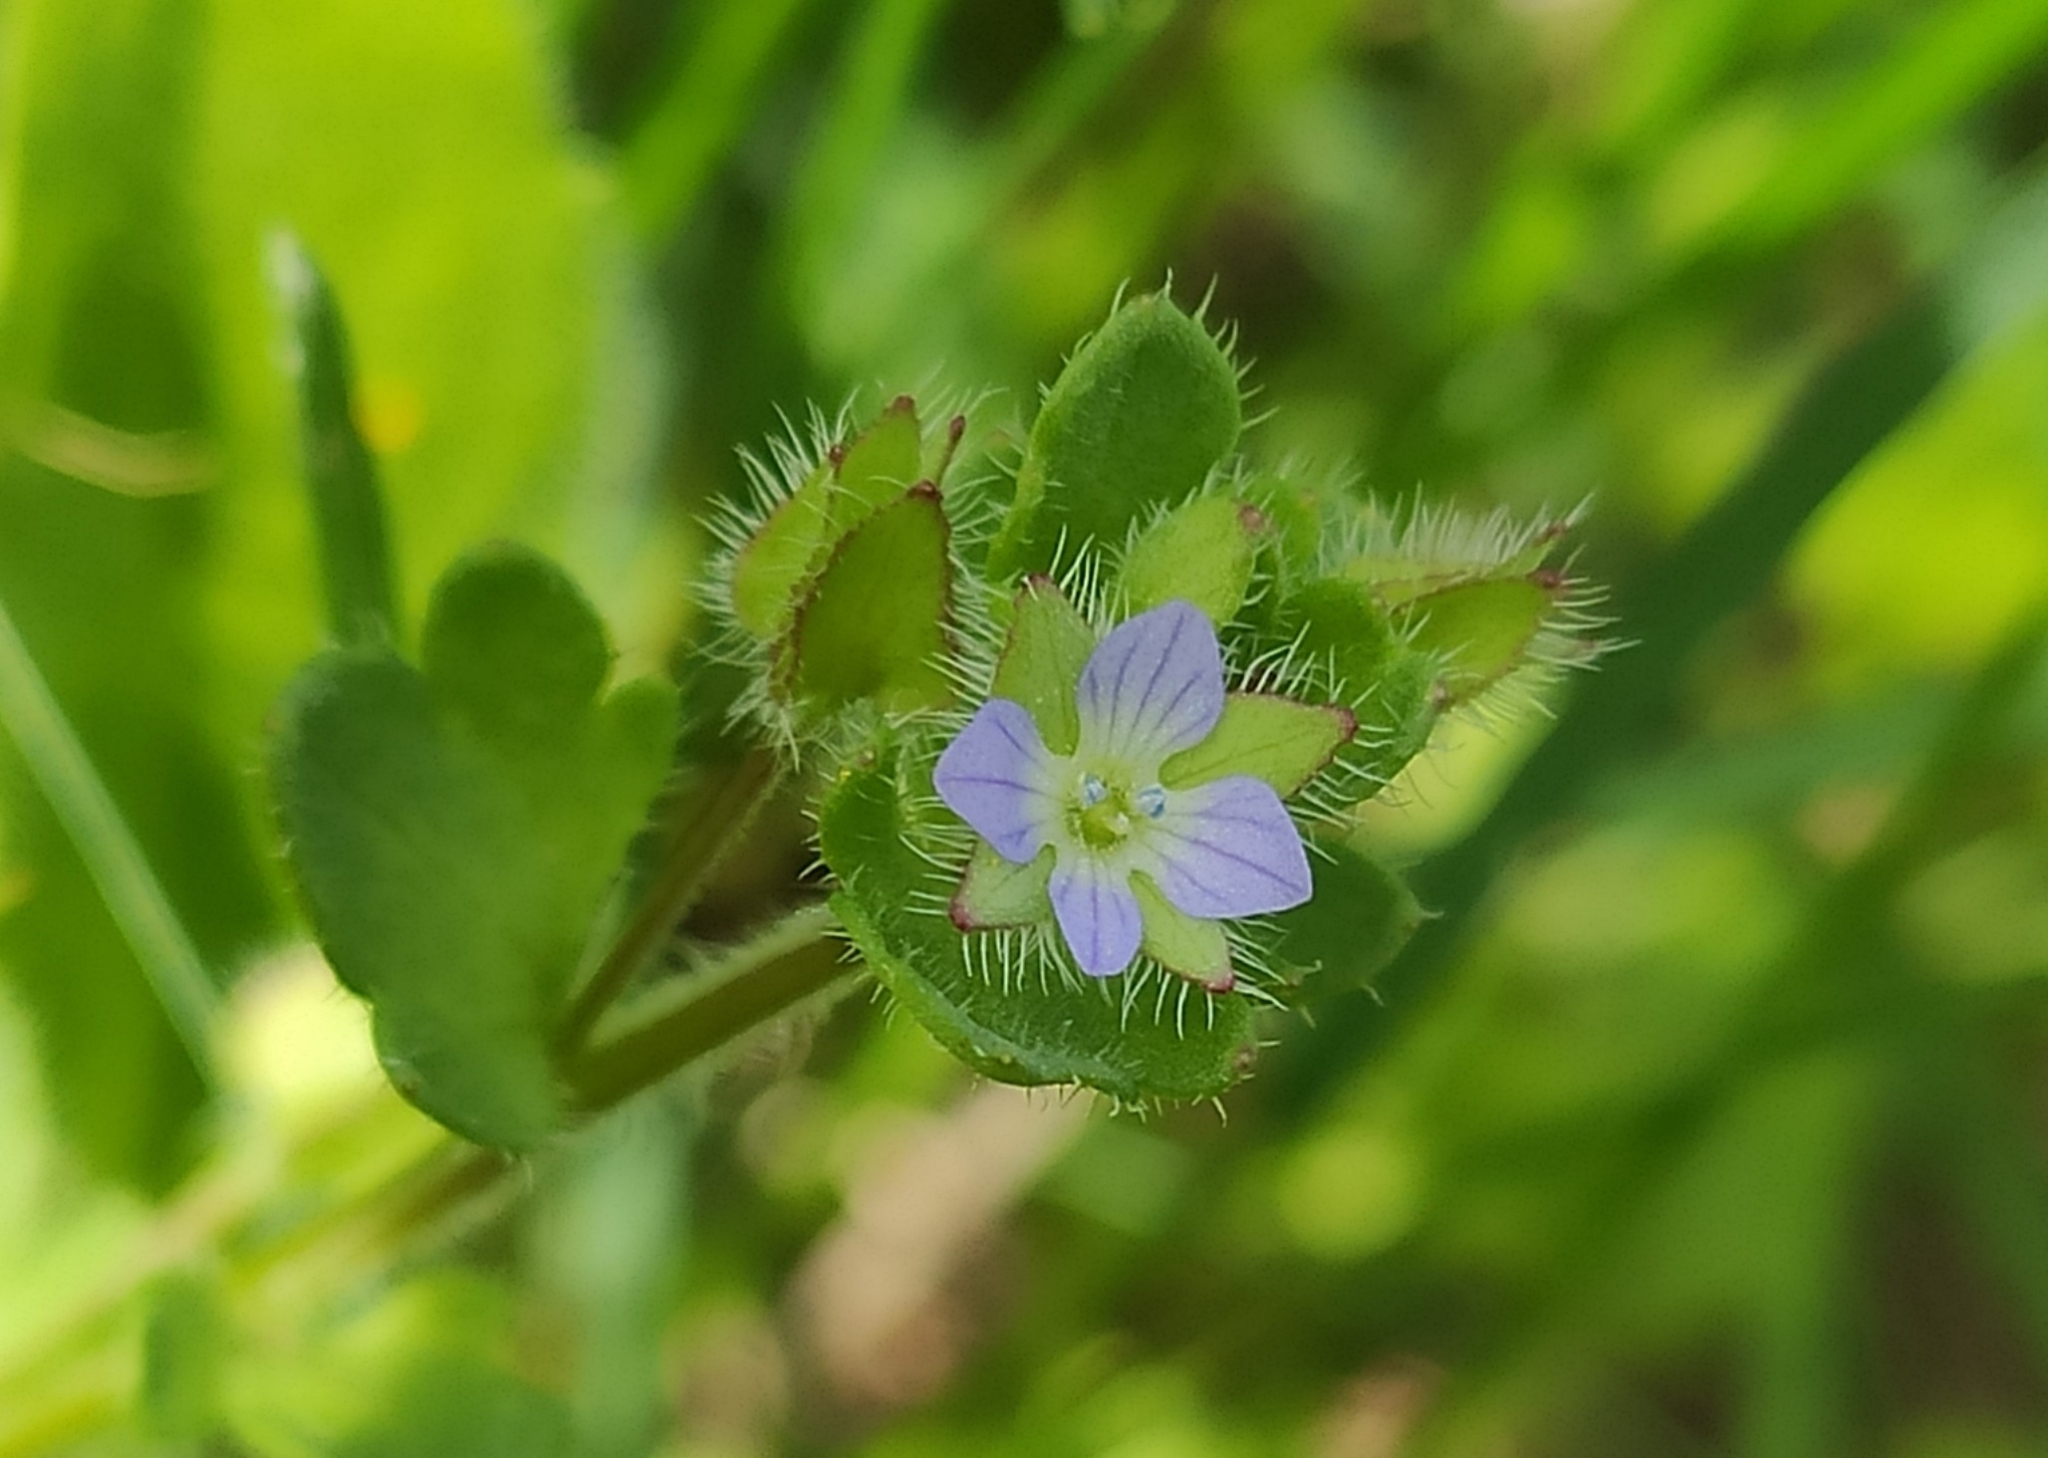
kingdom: Plantae
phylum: Tracheophyta
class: Magnoliopsida
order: Lamiales
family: Plantaginaceae
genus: Veronica
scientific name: Veronica hederifolia
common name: Ivy-leaved speedwell
